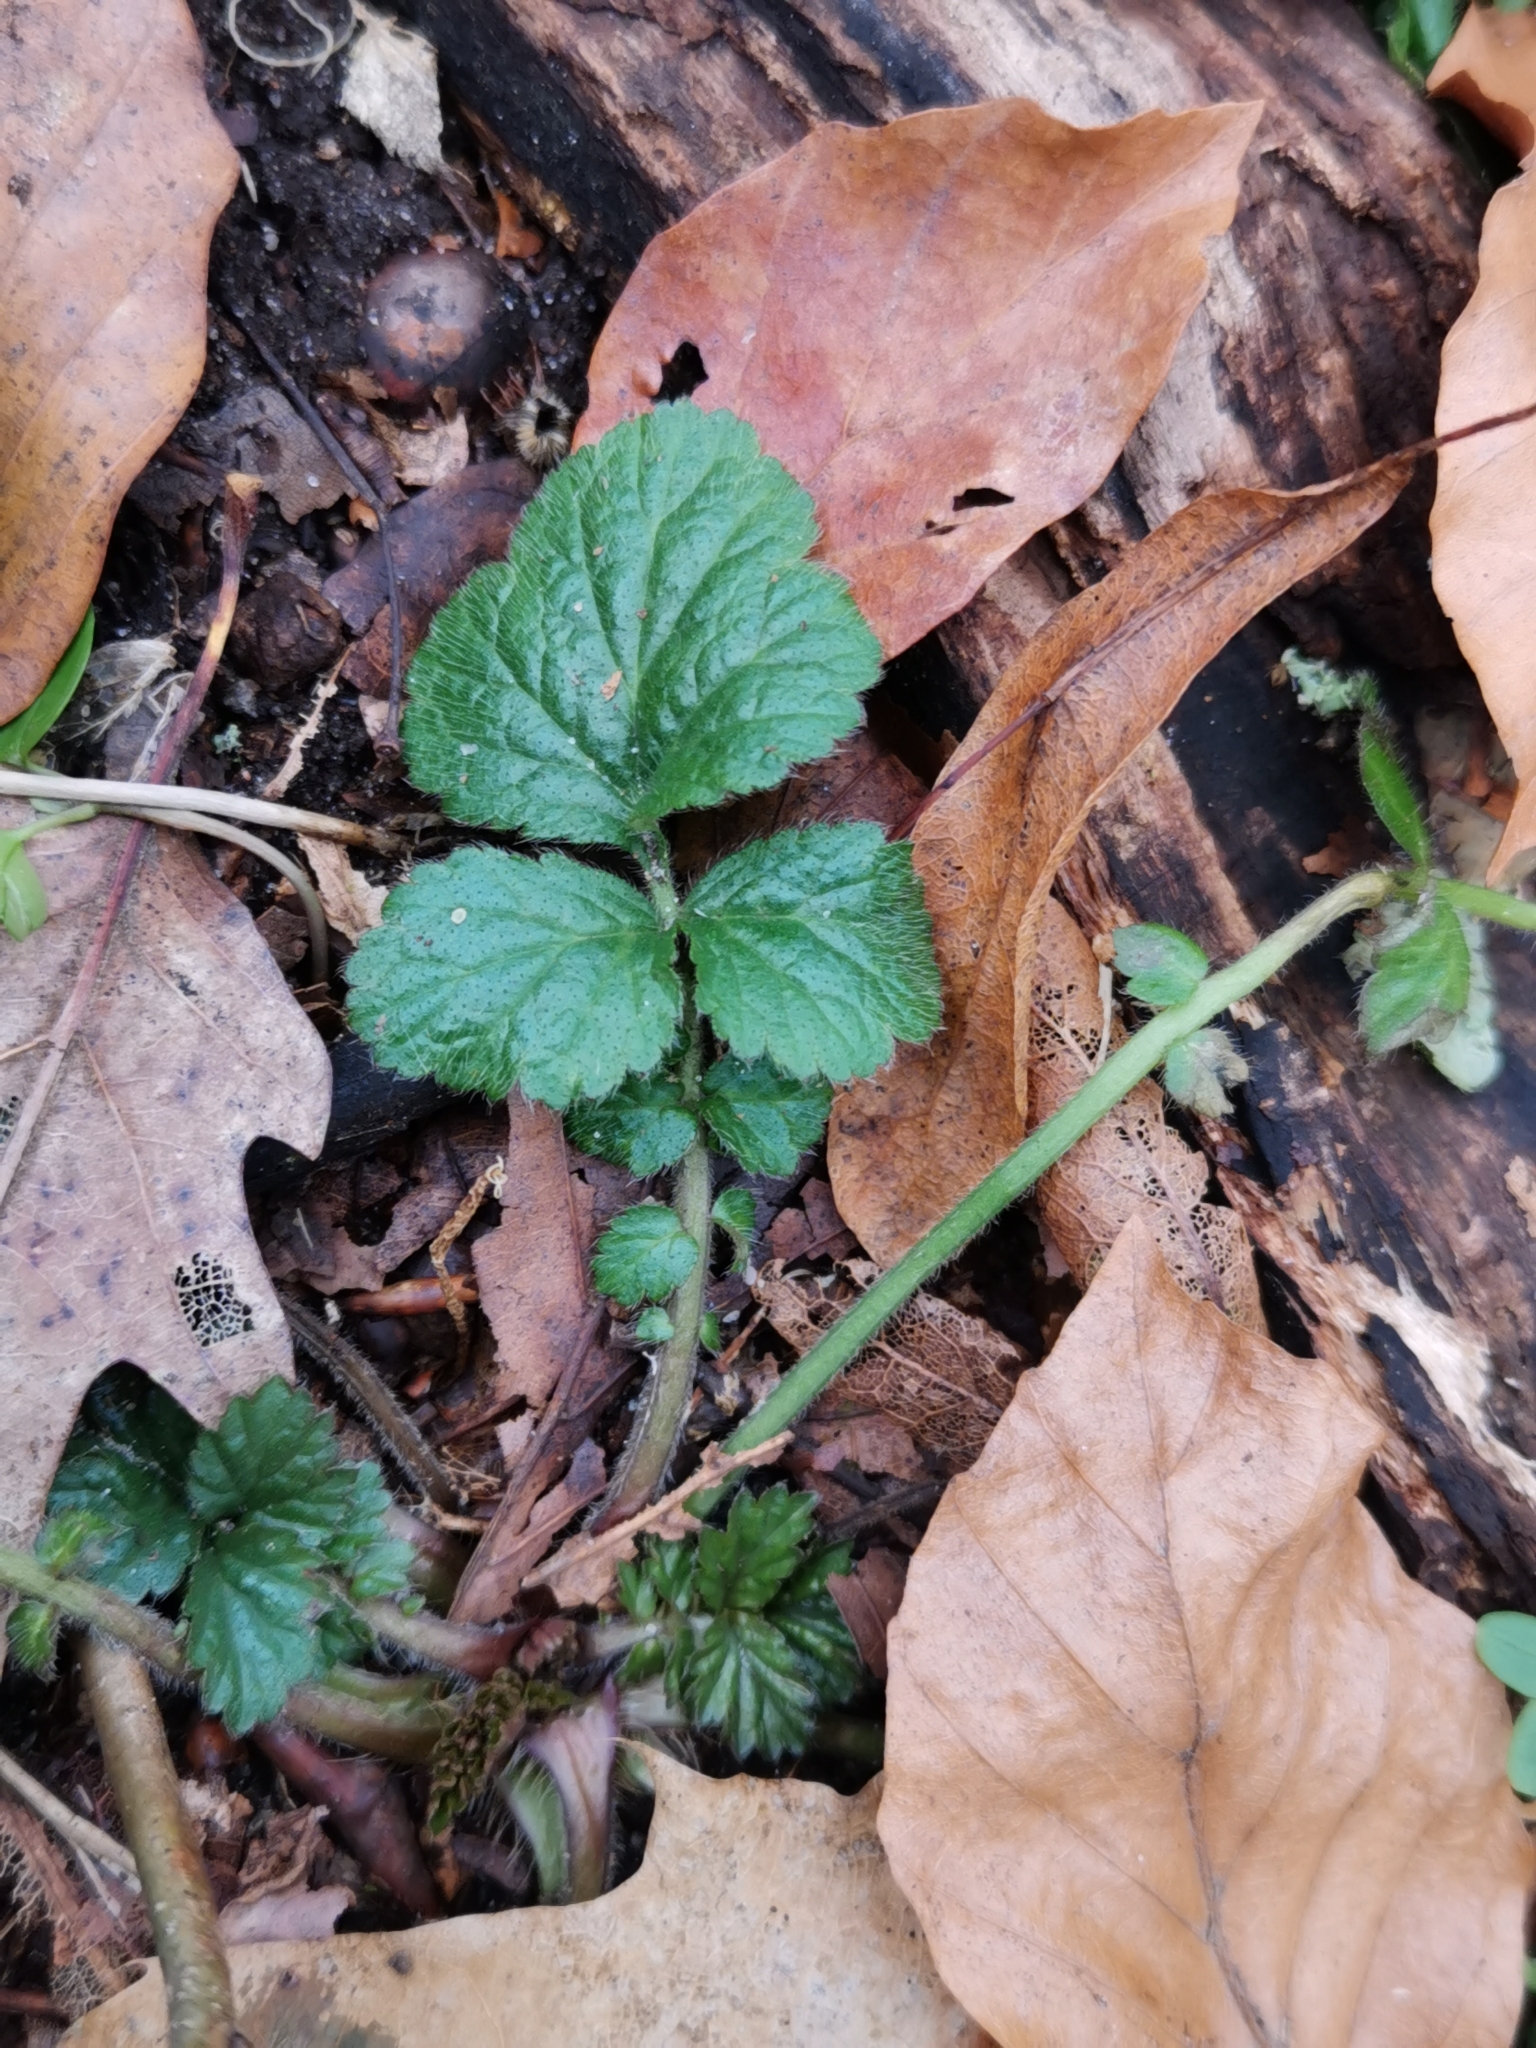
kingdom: Plantae
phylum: Tracheophyta
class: Magnoliopsida
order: Rosales
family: Rosaceae
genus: Geum
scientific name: Geum urbanum
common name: Wood avens
